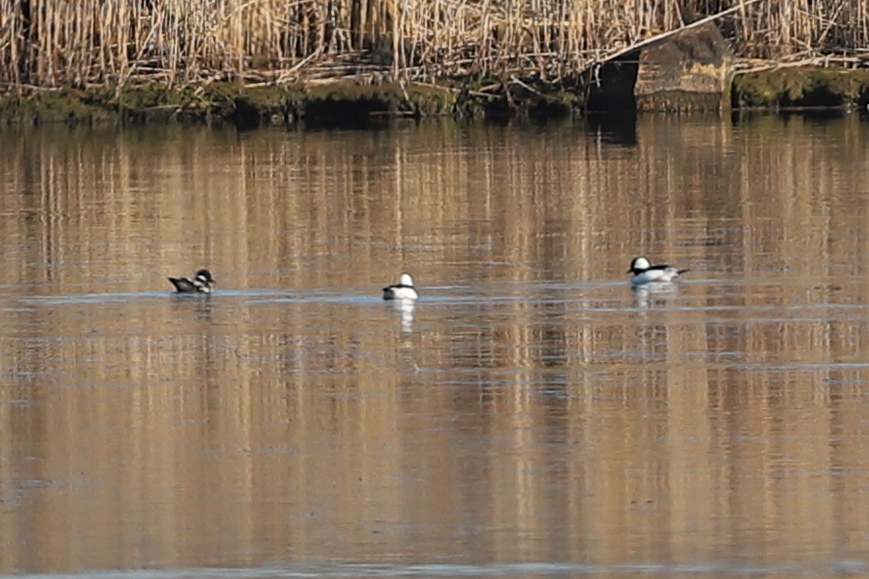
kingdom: Animalia
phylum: Chordata
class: Aves
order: Anseriformes
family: Anatidae
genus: Bucephala
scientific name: Bucephala albeola
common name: Bufflehead
